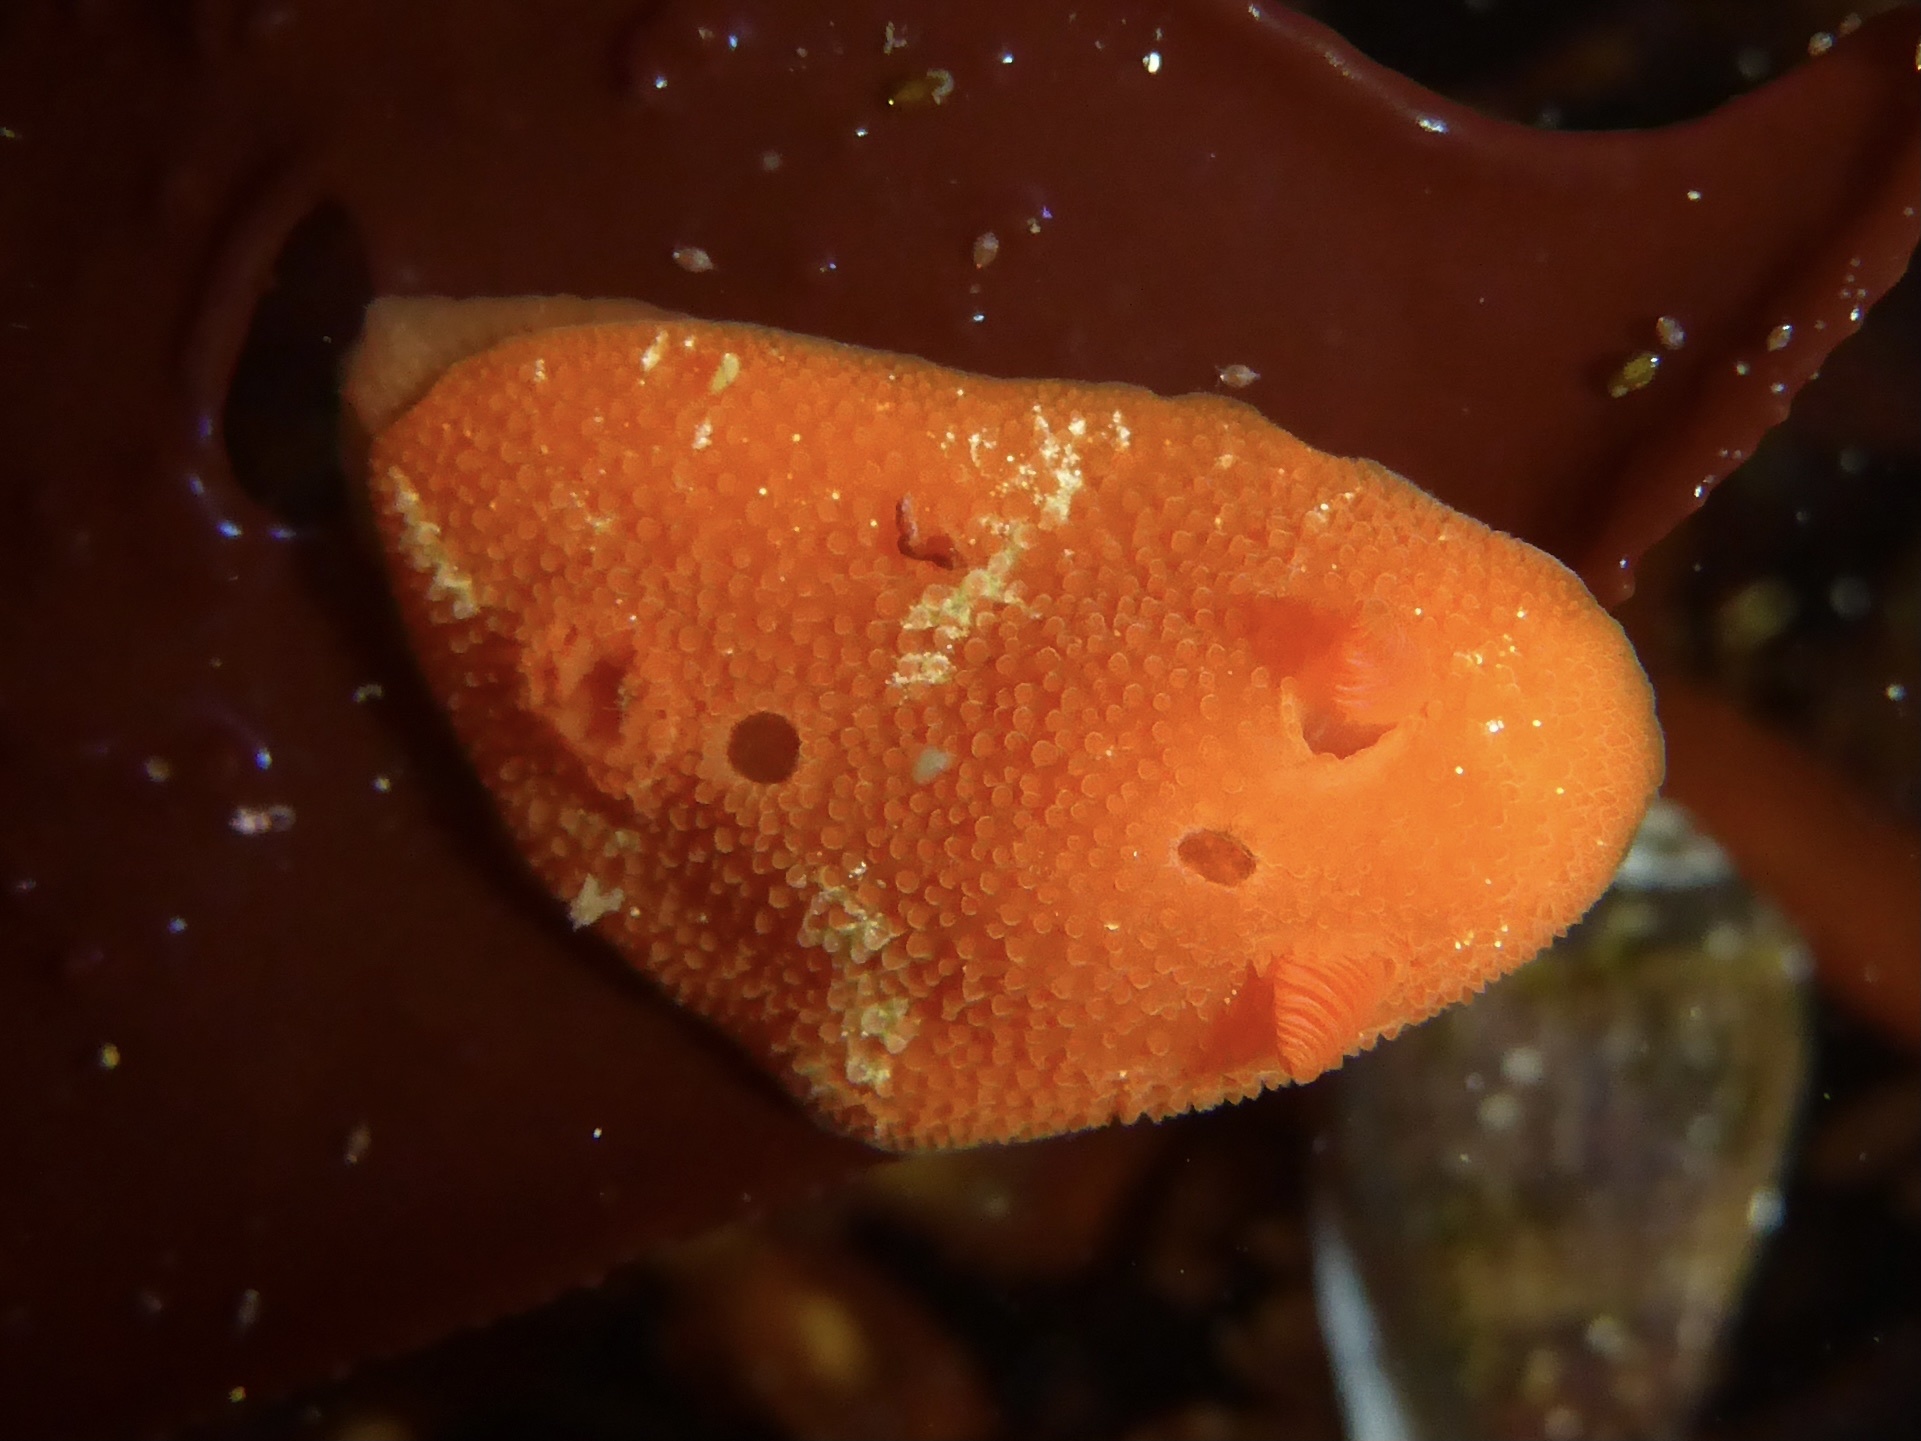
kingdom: Animalia
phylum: Mollusca
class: Gastropoda
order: Nudibranchia
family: Cadlinidae
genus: Aldisa
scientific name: Aldisa sanguinea
